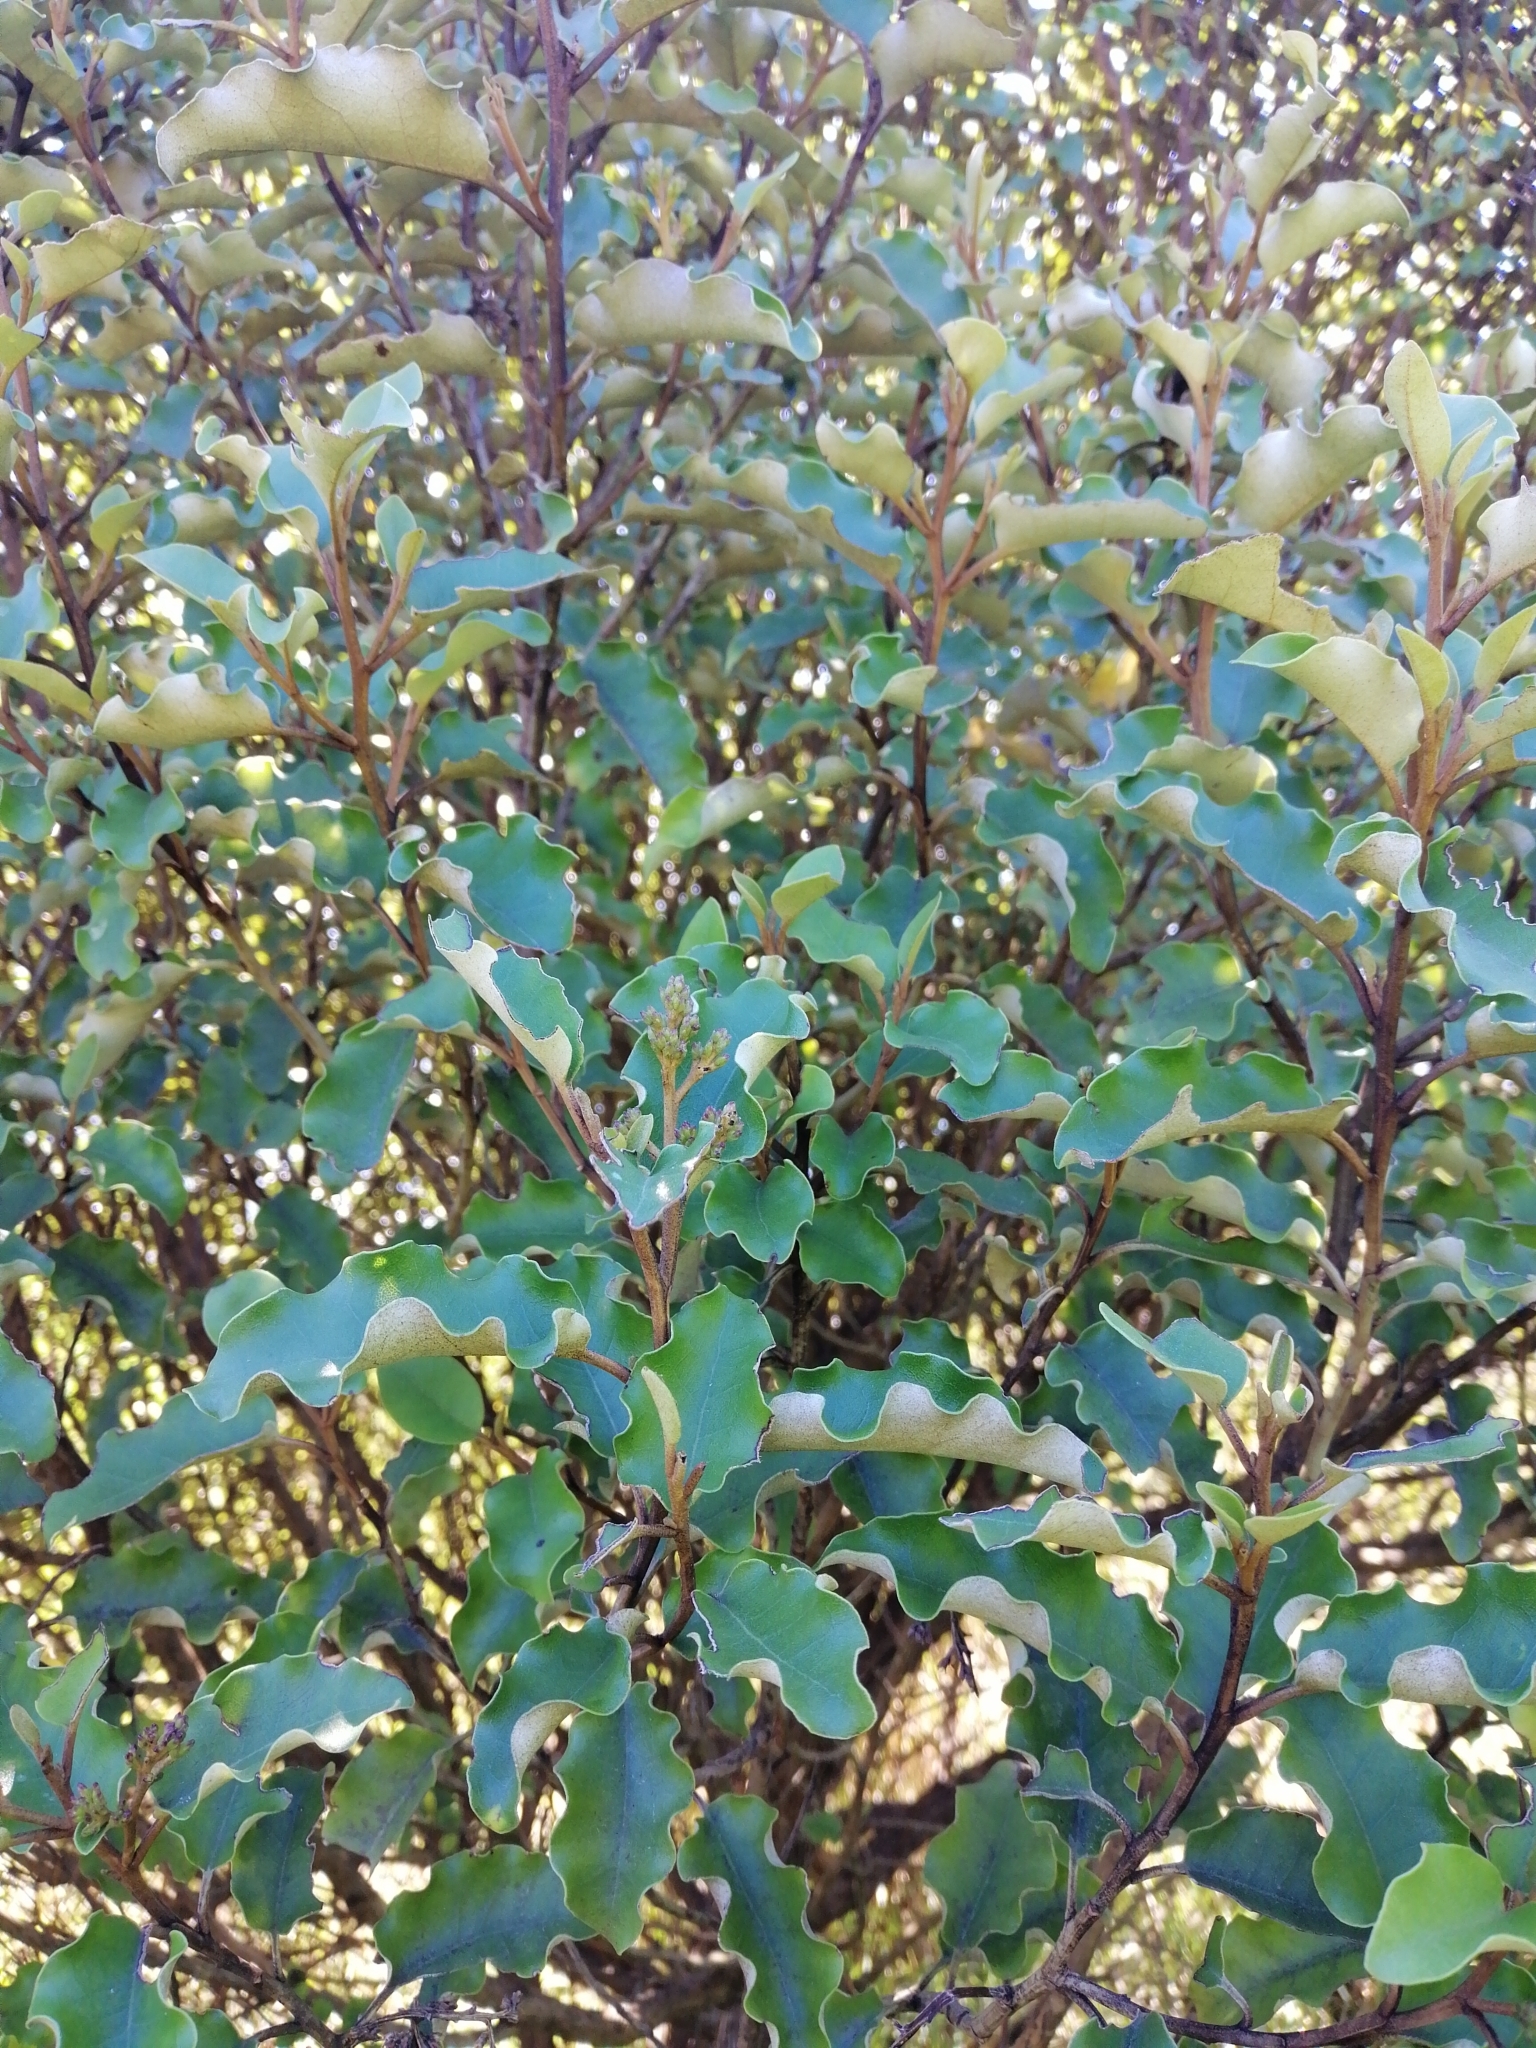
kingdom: Plantae
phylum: Tracheophyta
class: Magnoliopsida
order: Asterales
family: Asteraceae
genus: Olearia
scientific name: Olearia paniculata
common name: Akiraho
